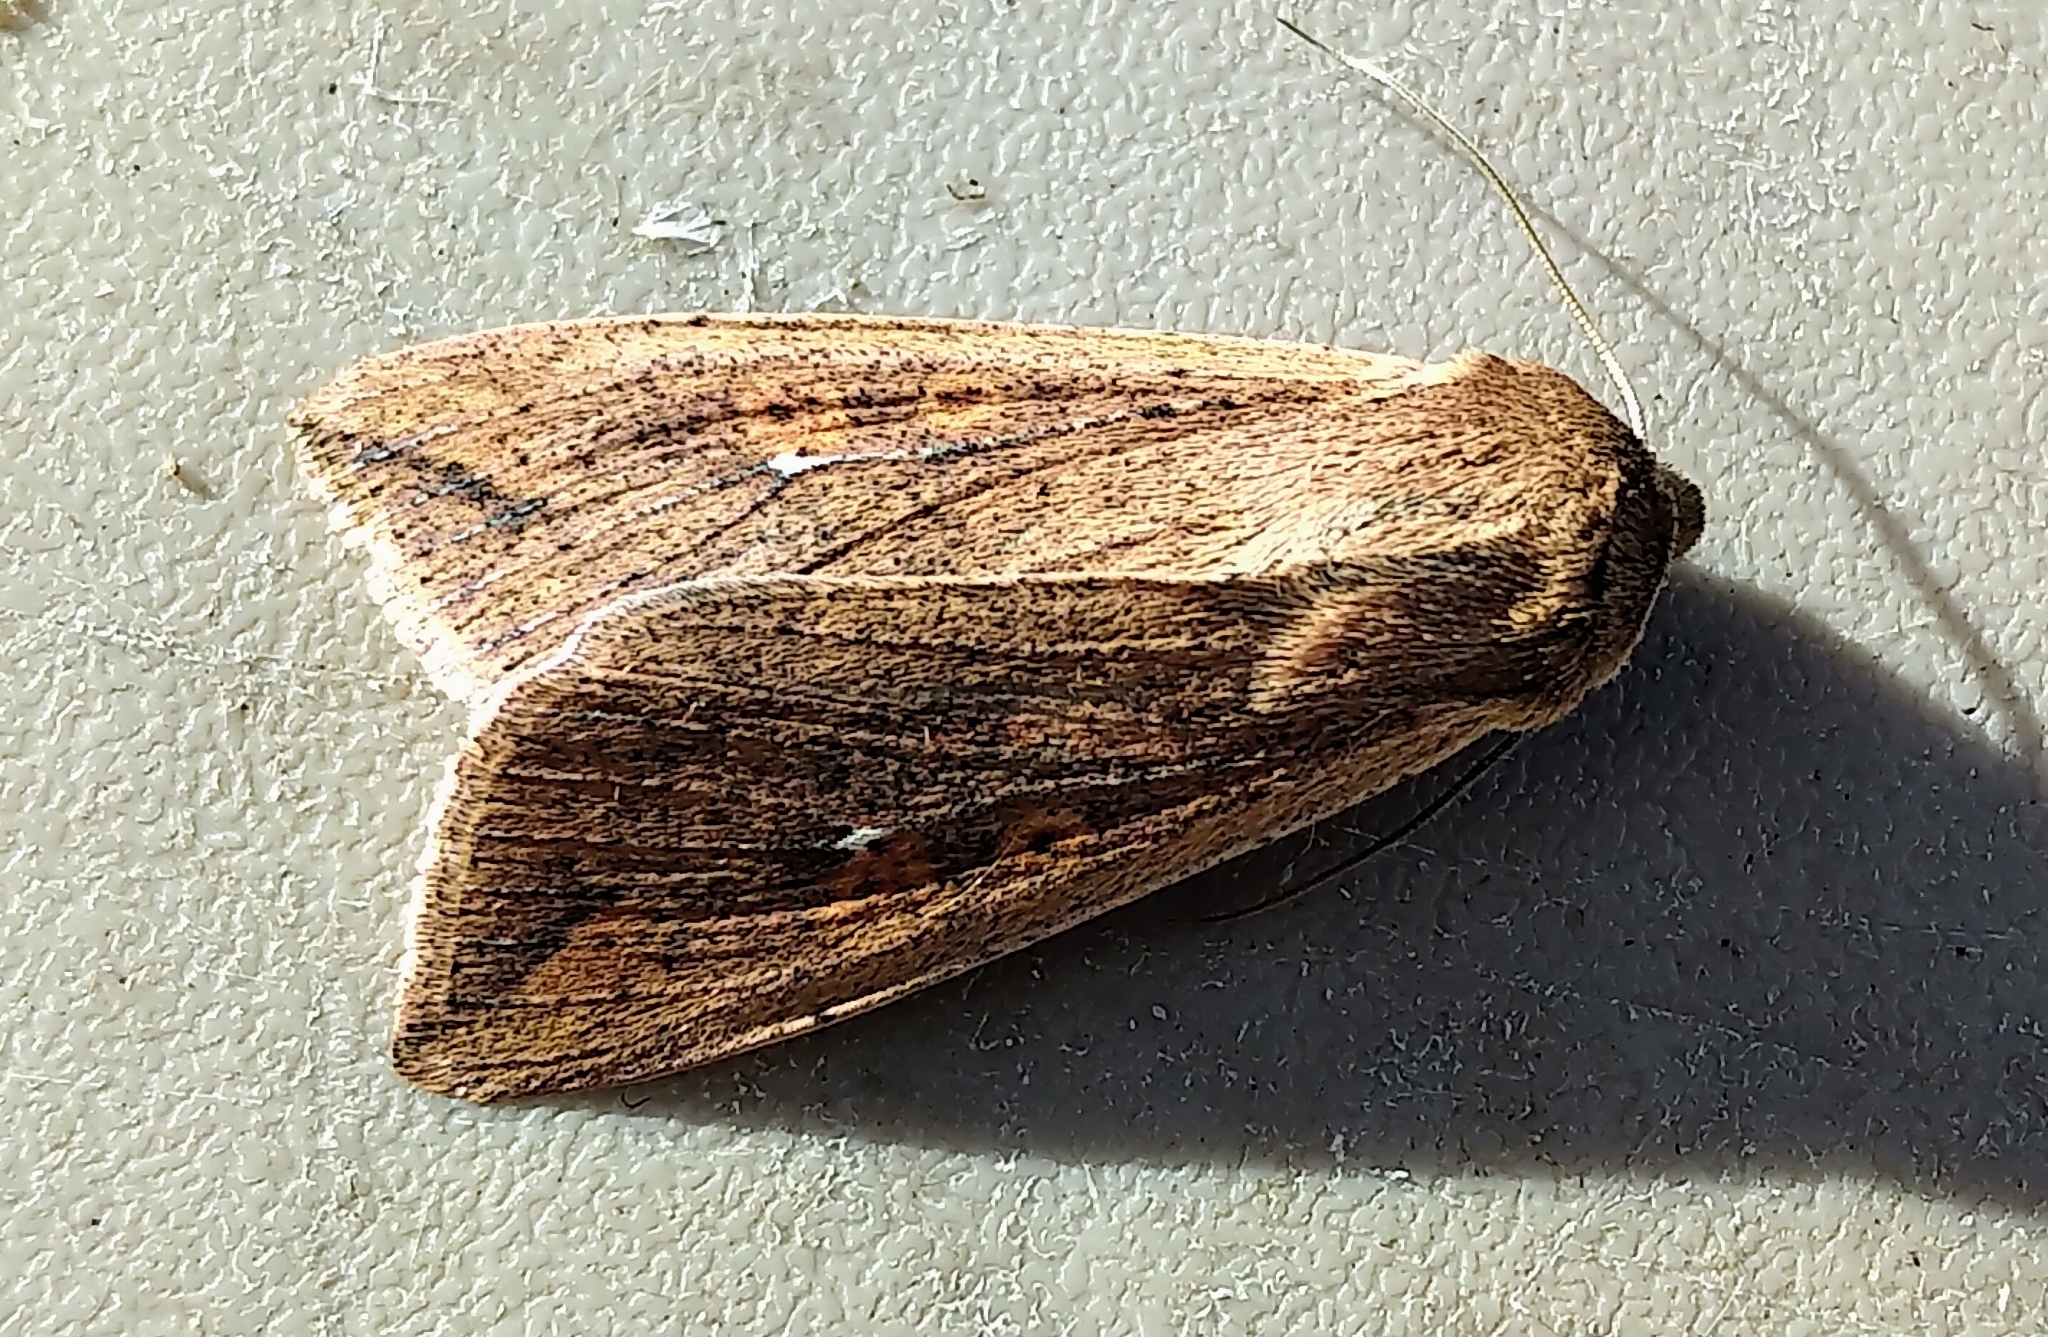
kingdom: Animalia
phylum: Arthropoda
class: Insecta
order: Lepidoptera
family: Noctuidae
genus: Mythimna
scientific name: Mythimna unipuncta
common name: White-speck
